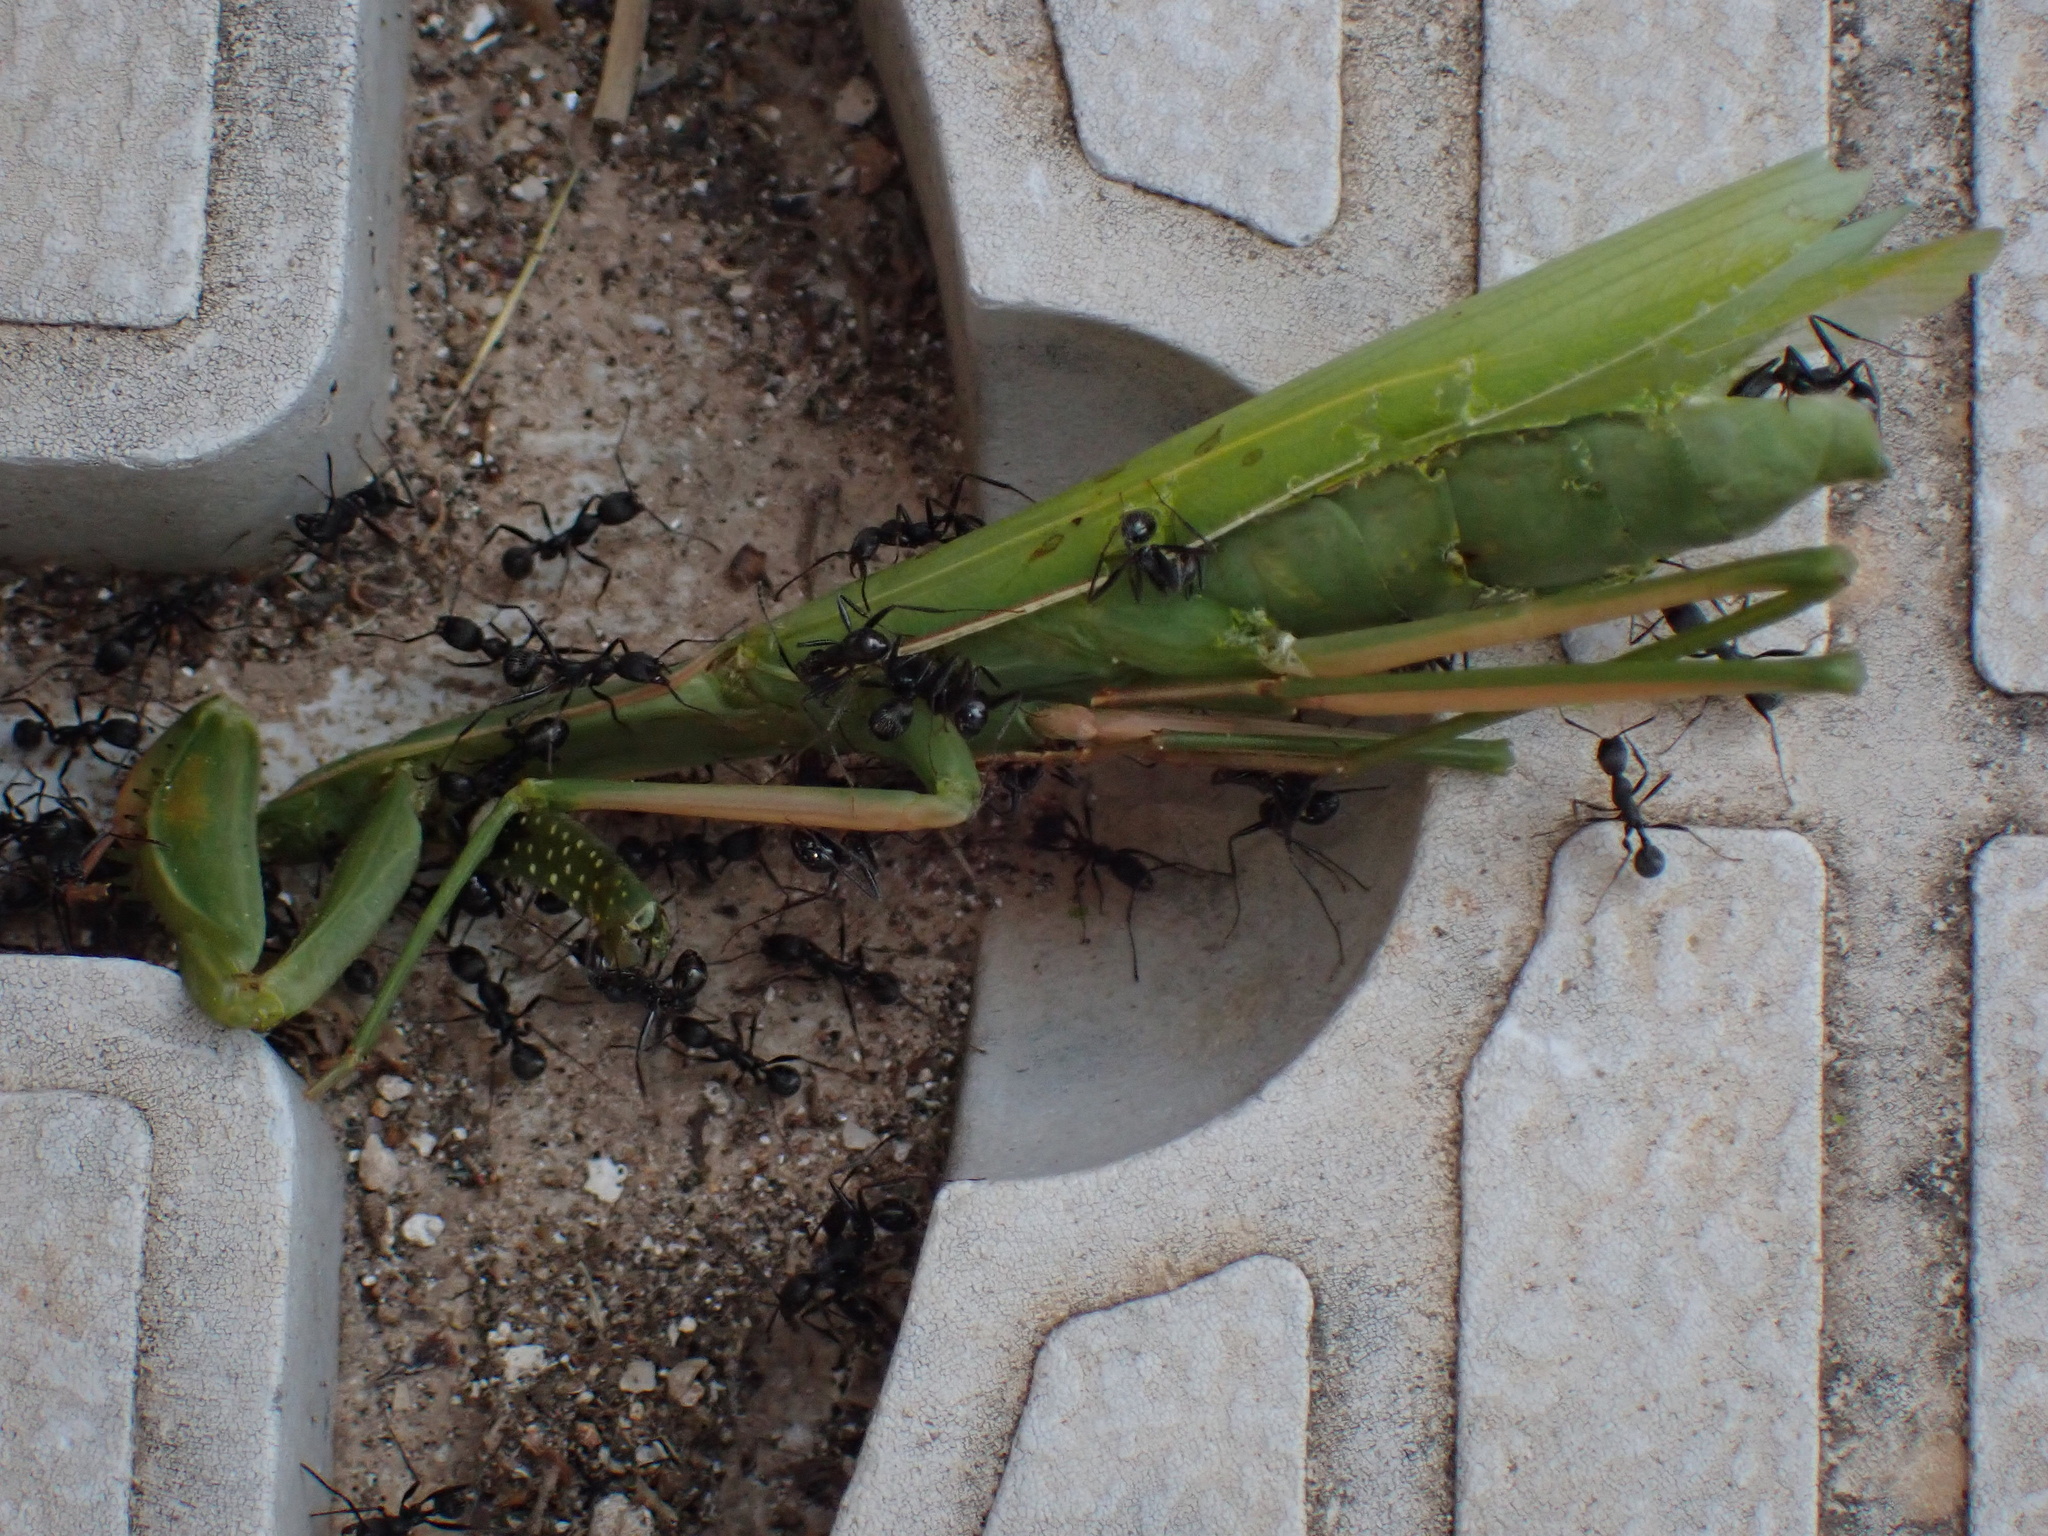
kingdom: Animalia
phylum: Arthropoda
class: Insecta
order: Mantodea
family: Mantidae
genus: Mantis
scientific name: Mantis religiosa
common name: Praying mantis
